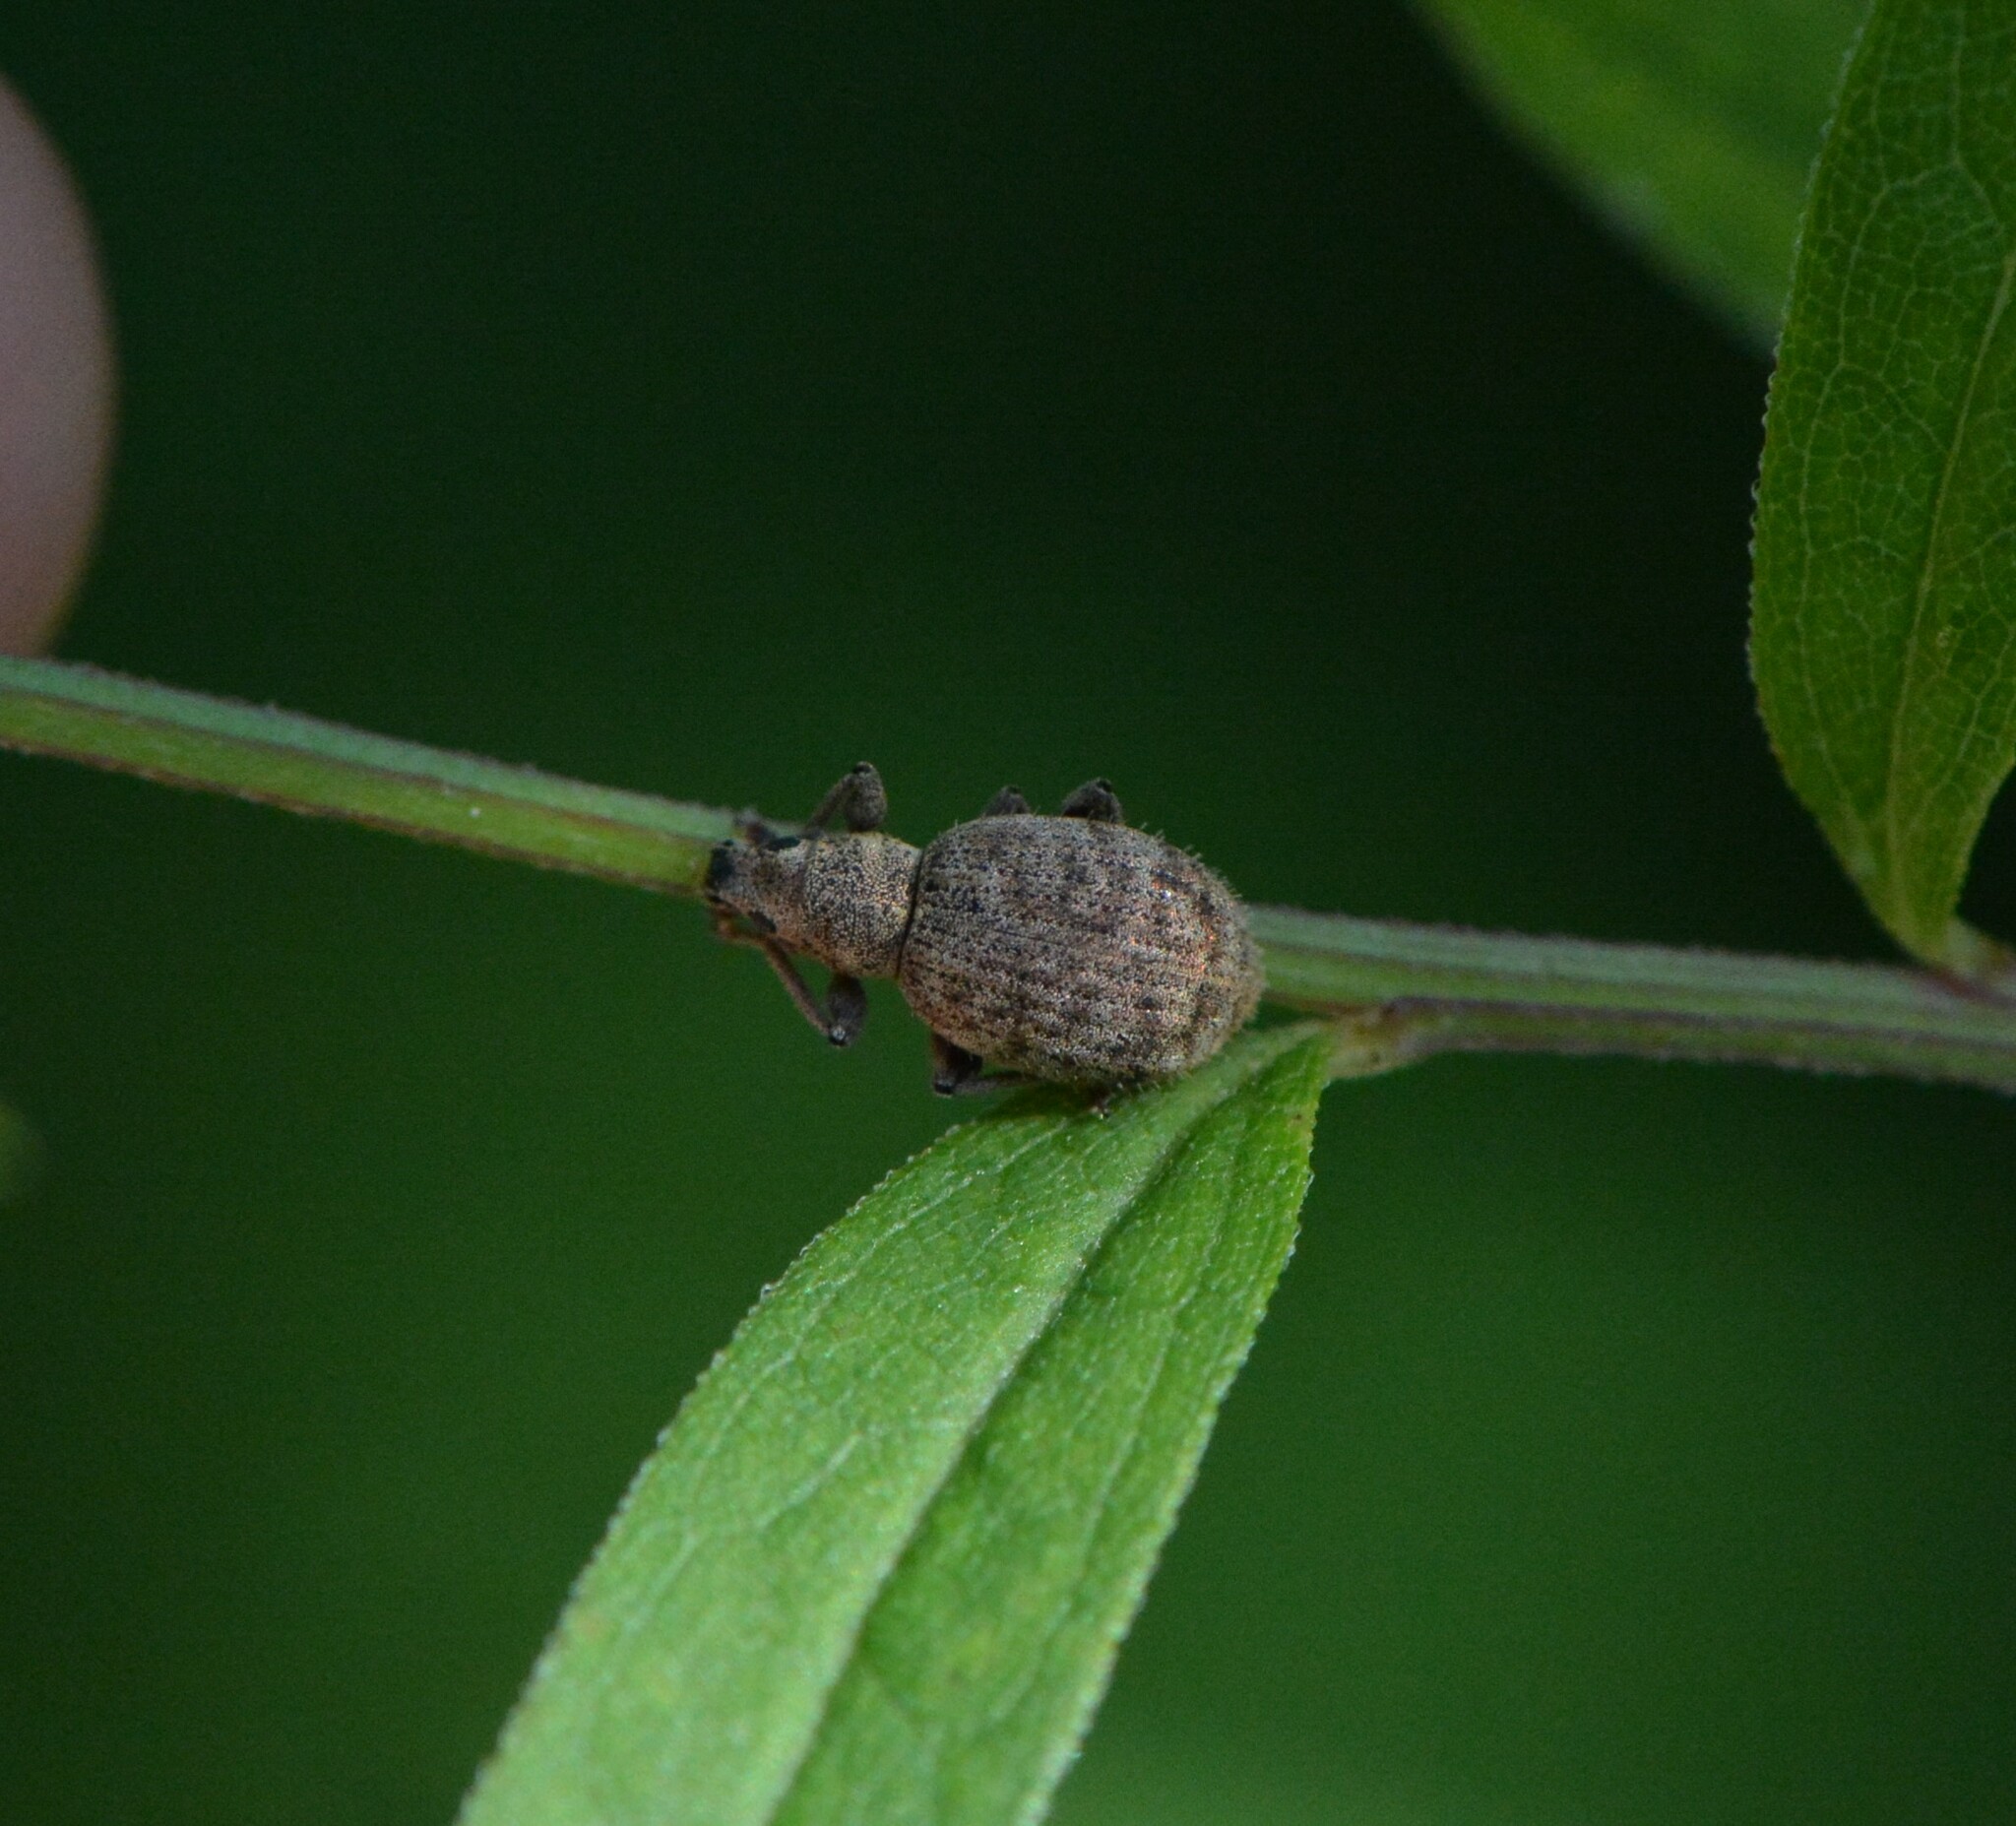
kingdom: Animalia
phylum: Arthropoda
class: Insecta
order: Coleoptera
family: Curculionidae
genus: Sciaphilus
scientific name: Sciaphilus asperatus
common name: Weevil
